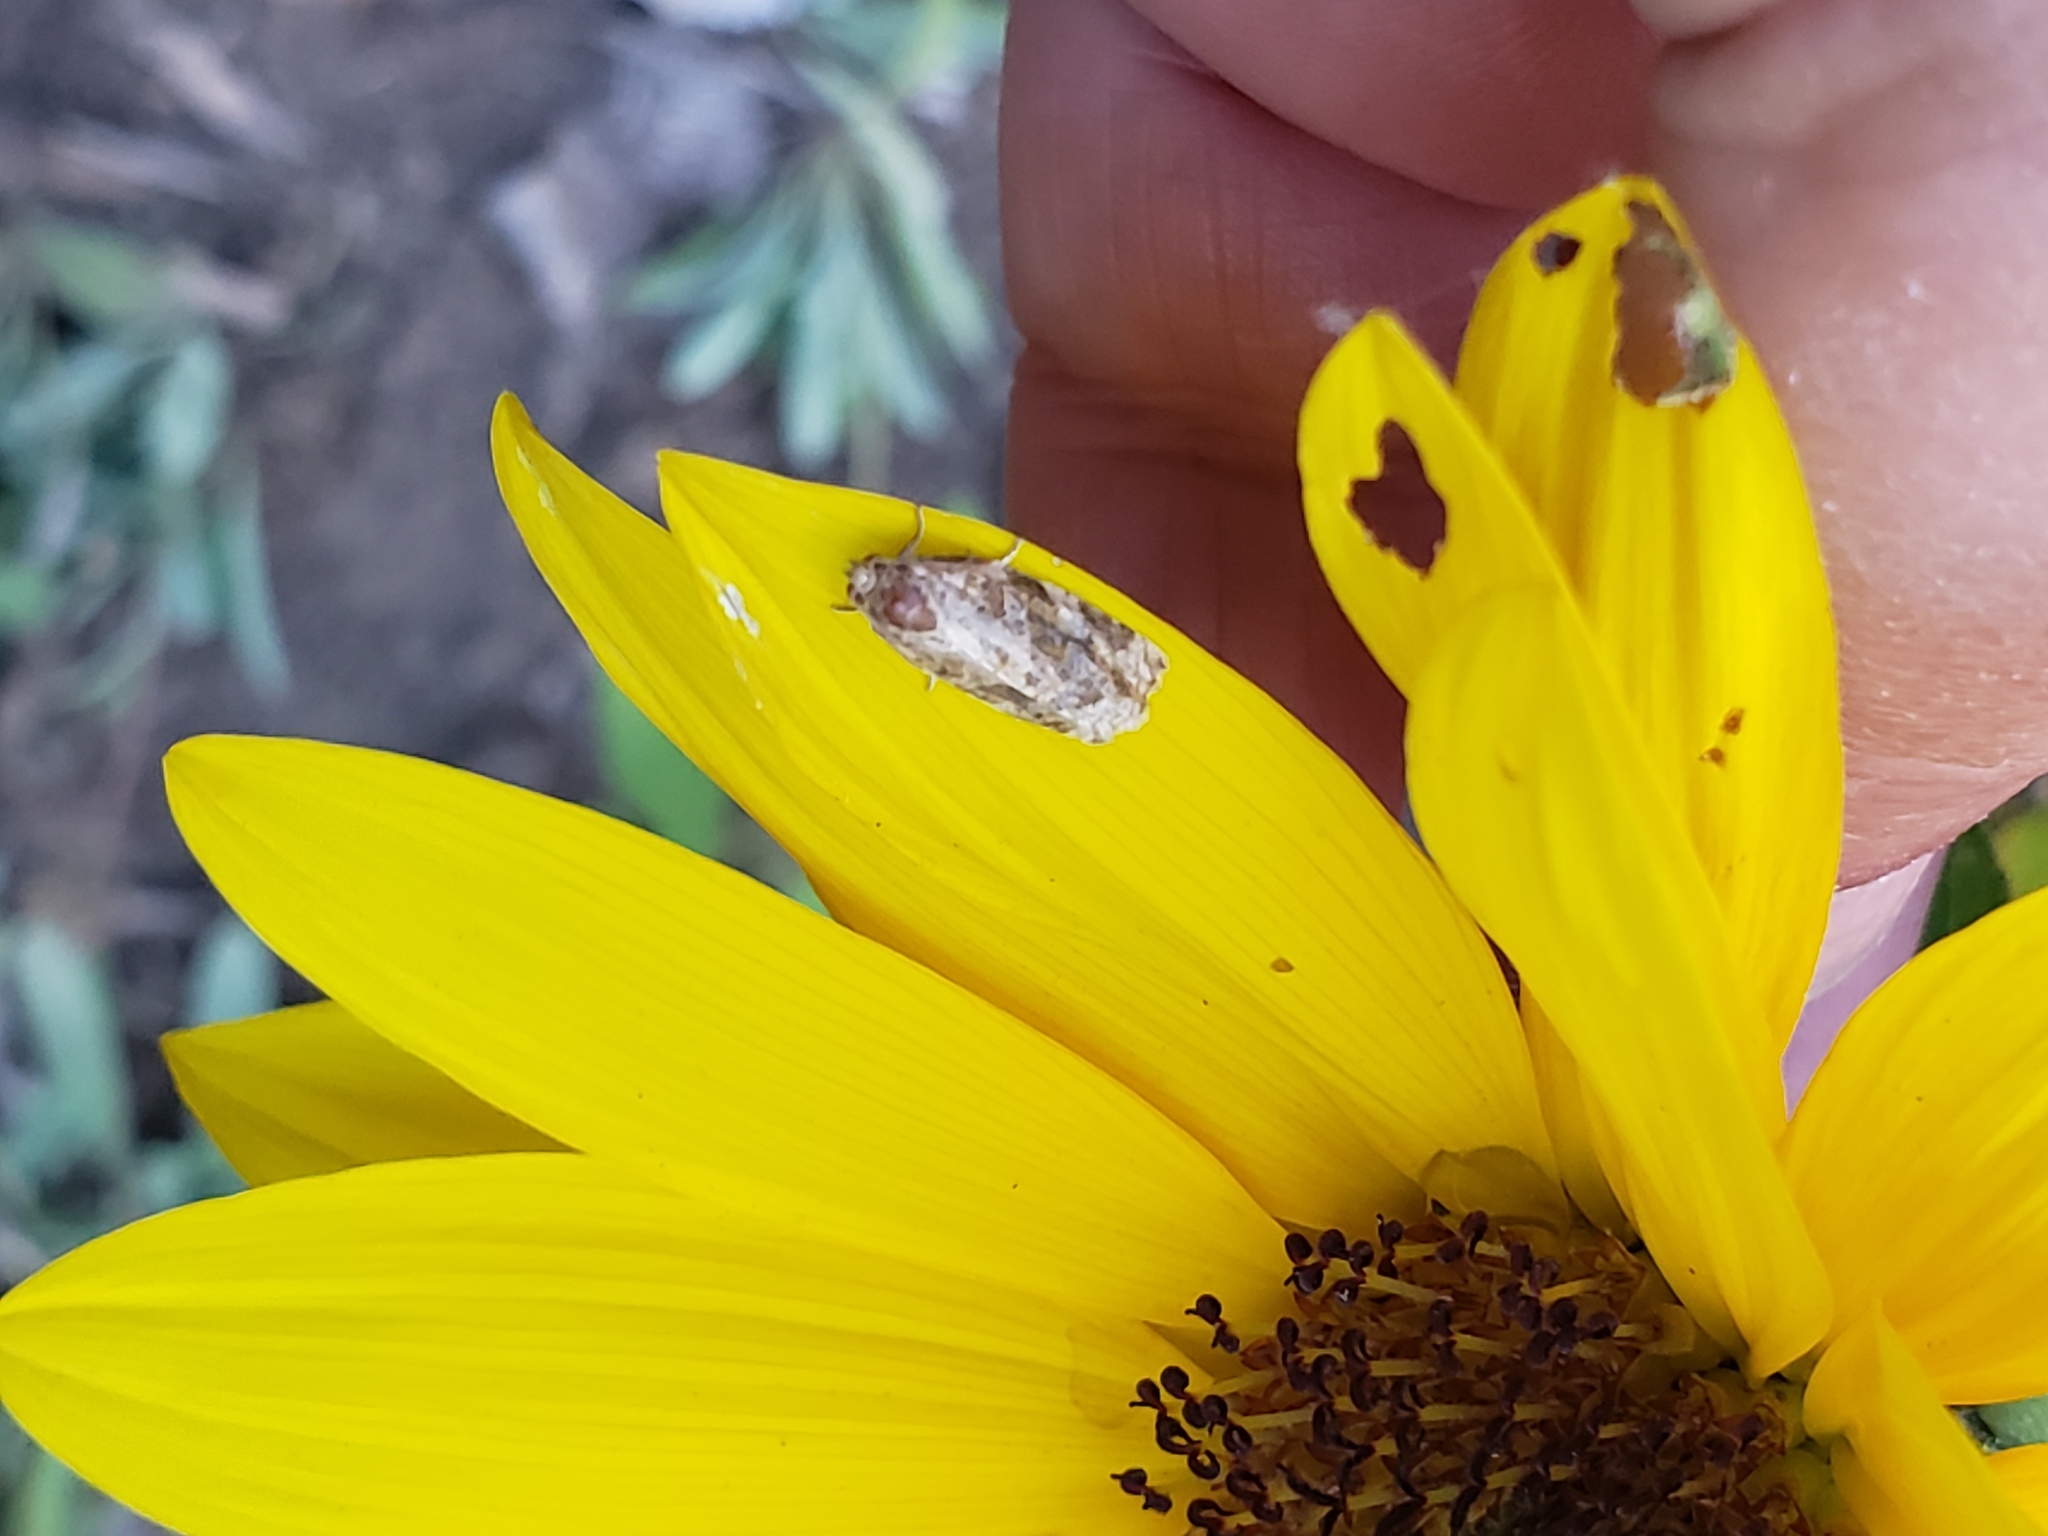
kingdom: Animalia
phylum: Arthropoda
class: Insecta
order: Lepidoptera
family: Tortricidae
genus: Archips
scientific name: Archips argyrospila
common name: Fruit-tree leafroller moth
